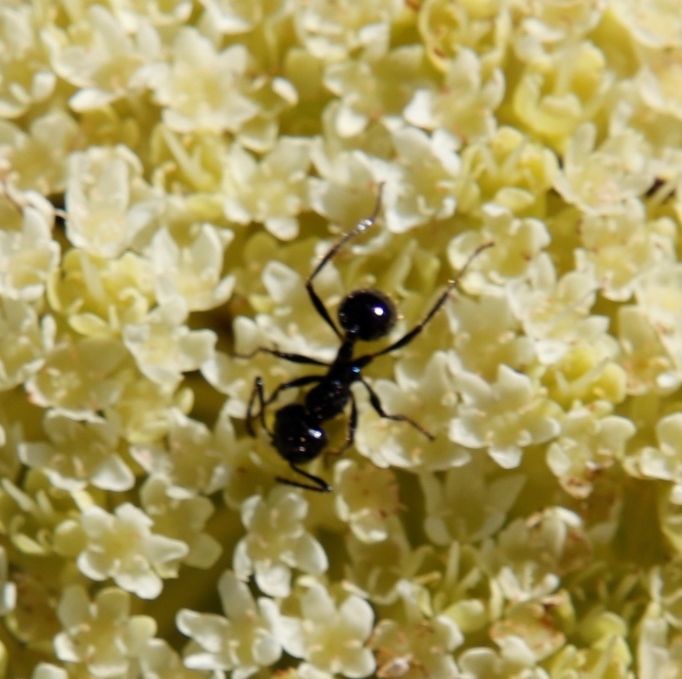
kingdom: Animalia
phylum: Arthropoda
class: Insecta
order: Hymenoptera
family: Formicidae
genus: Myrmicaria
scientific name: Myrmicaria nigra
